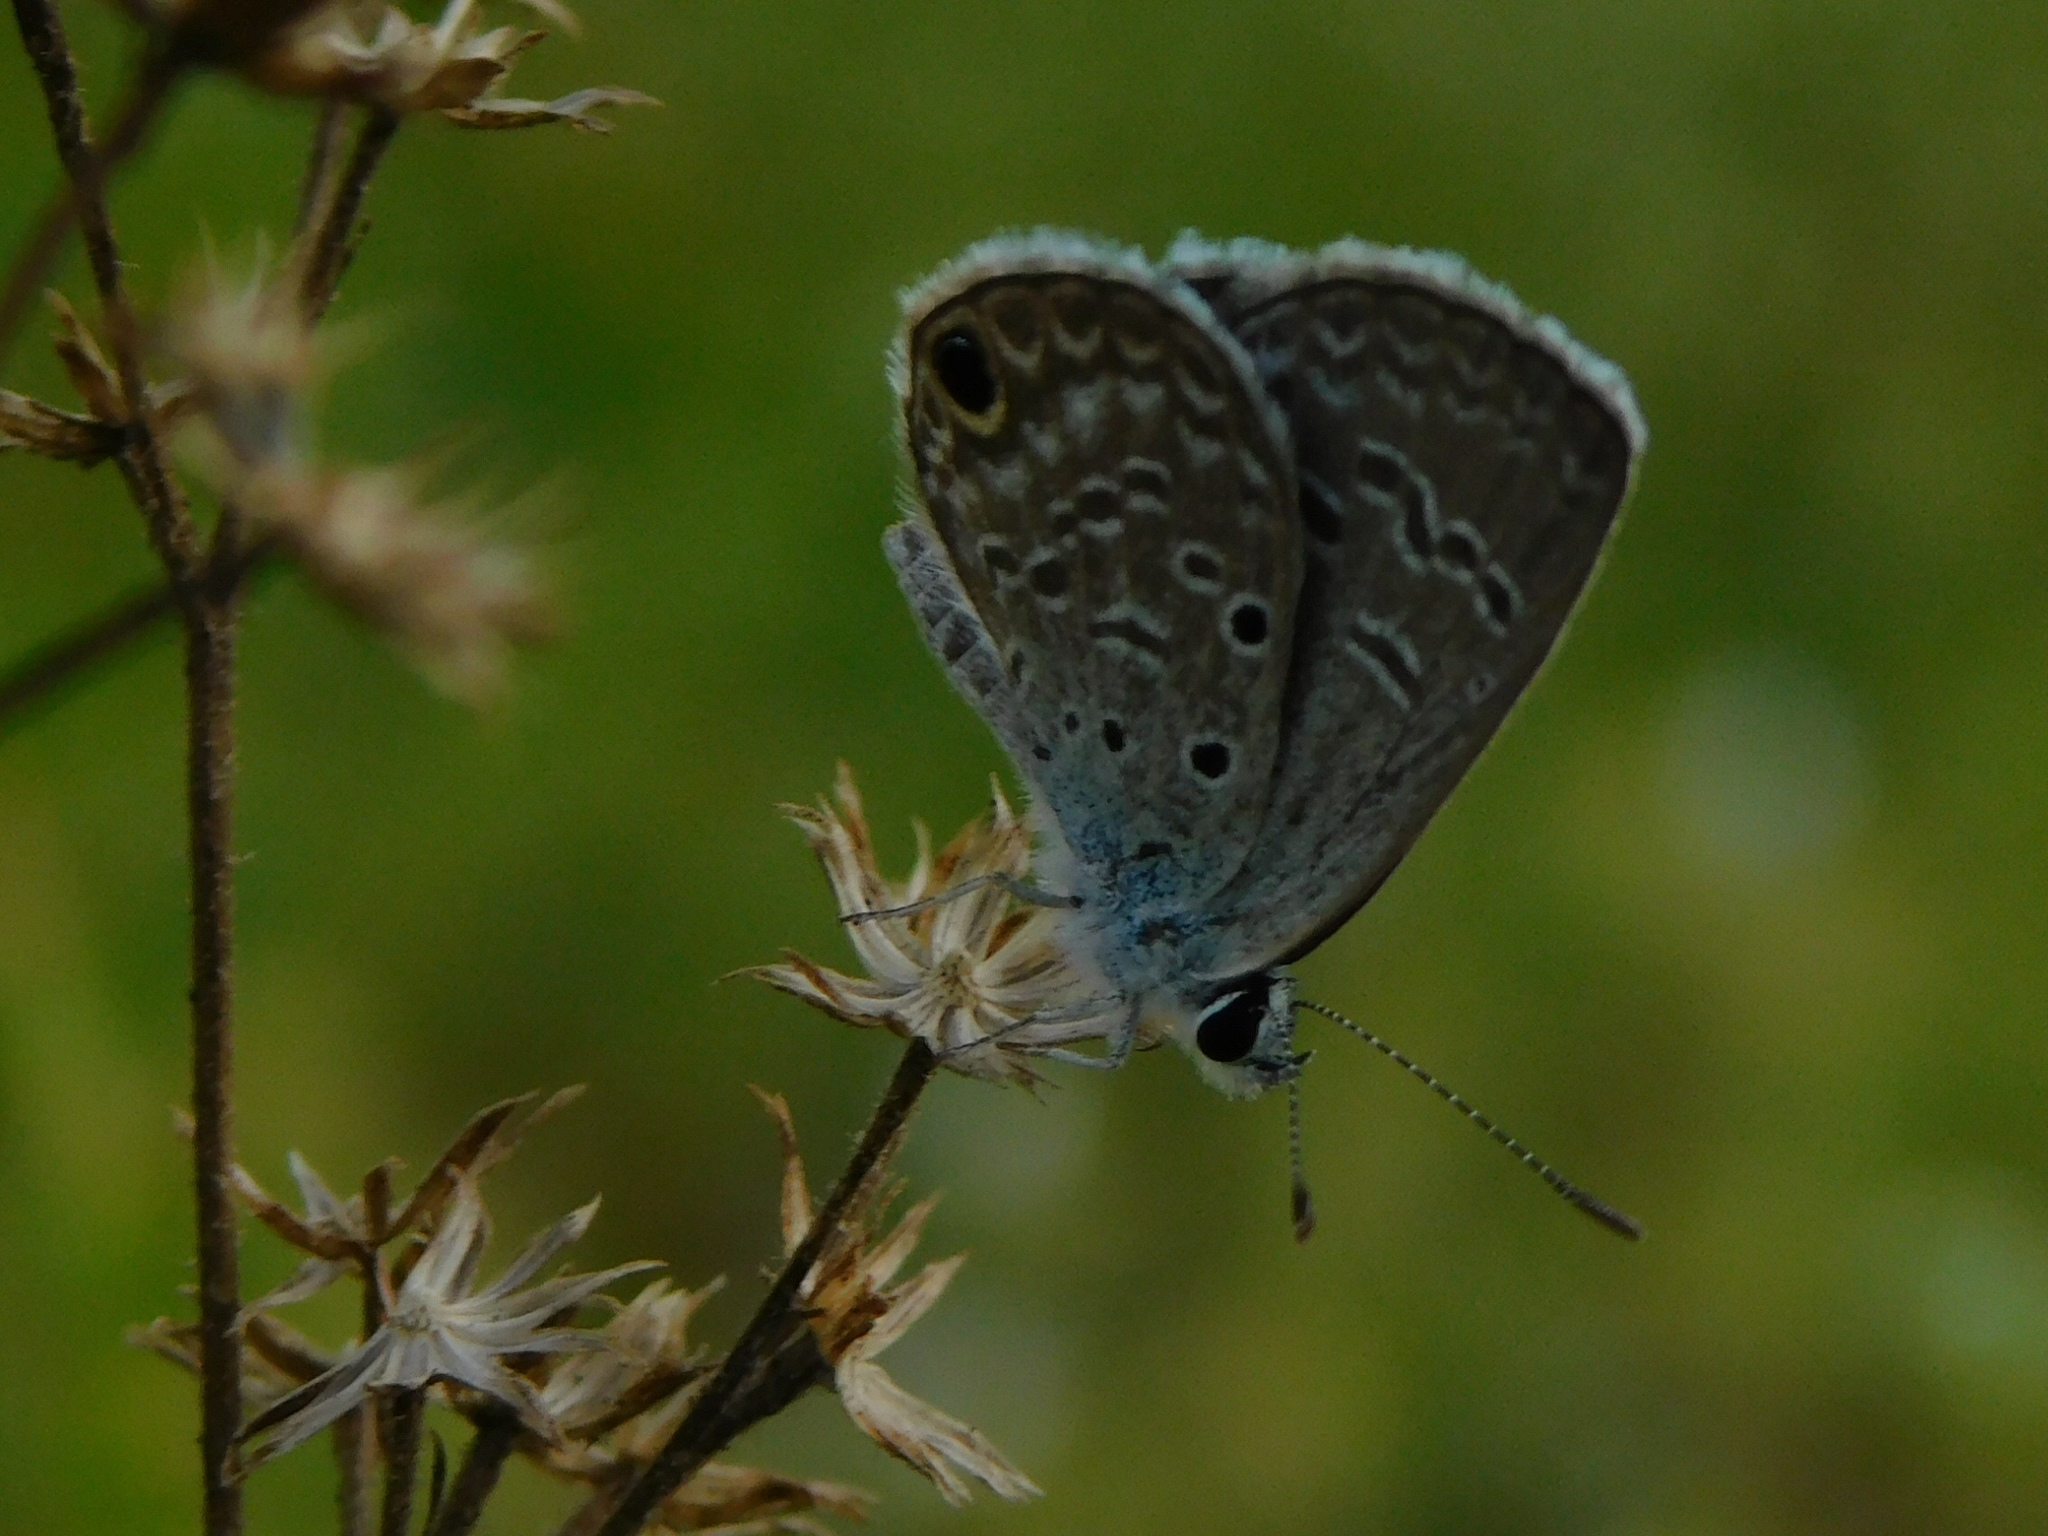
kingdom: Animalia
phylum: Arthropoda
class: Insecta
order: Lepidoptera
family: Lycaenidae
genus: Hemiargus
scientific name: Hemiargus ceraunus
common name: Ceraunus blue
